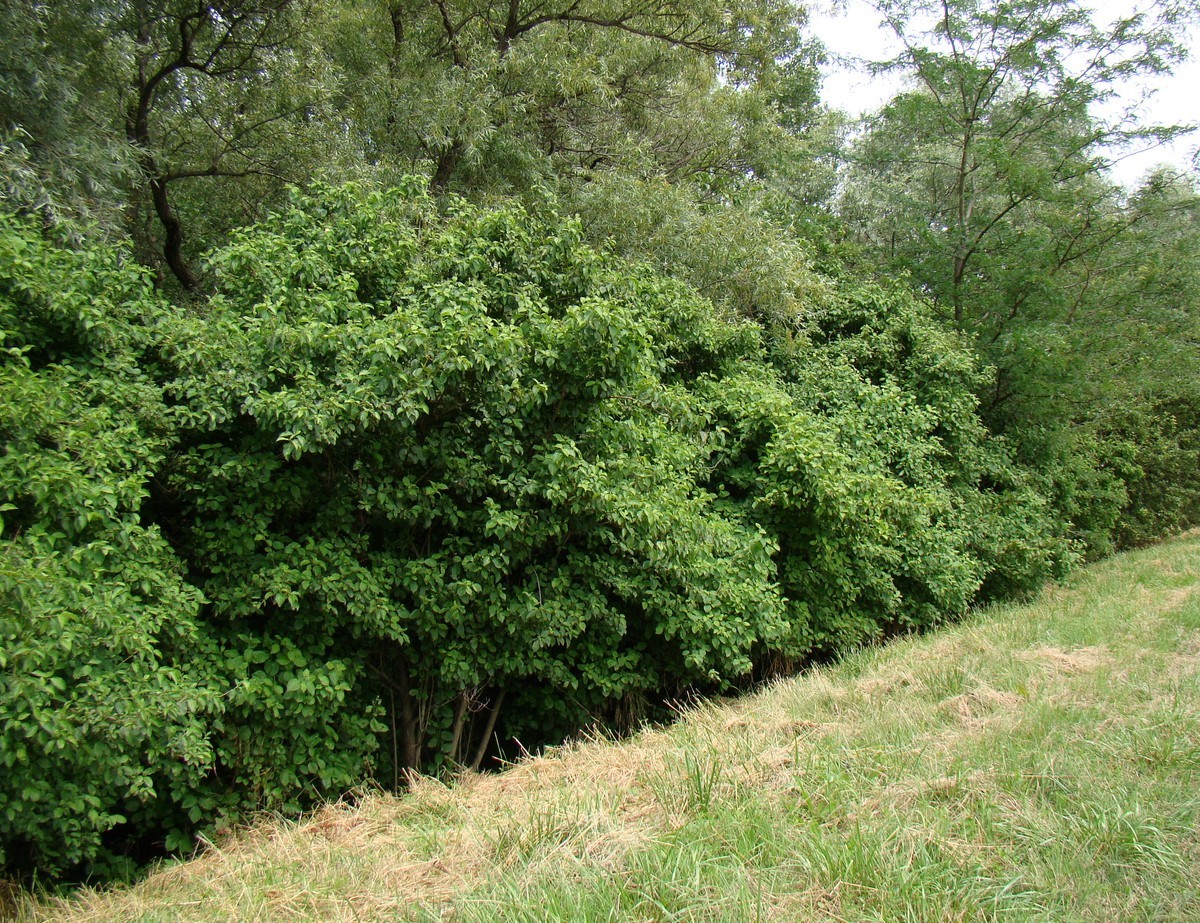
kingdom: Plantae
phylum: Tracheophyta
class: Magnoliopsida
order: Cornales
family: Cornaceae
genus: Cornus
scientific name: Cornus sanguinea
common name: Dogwood
